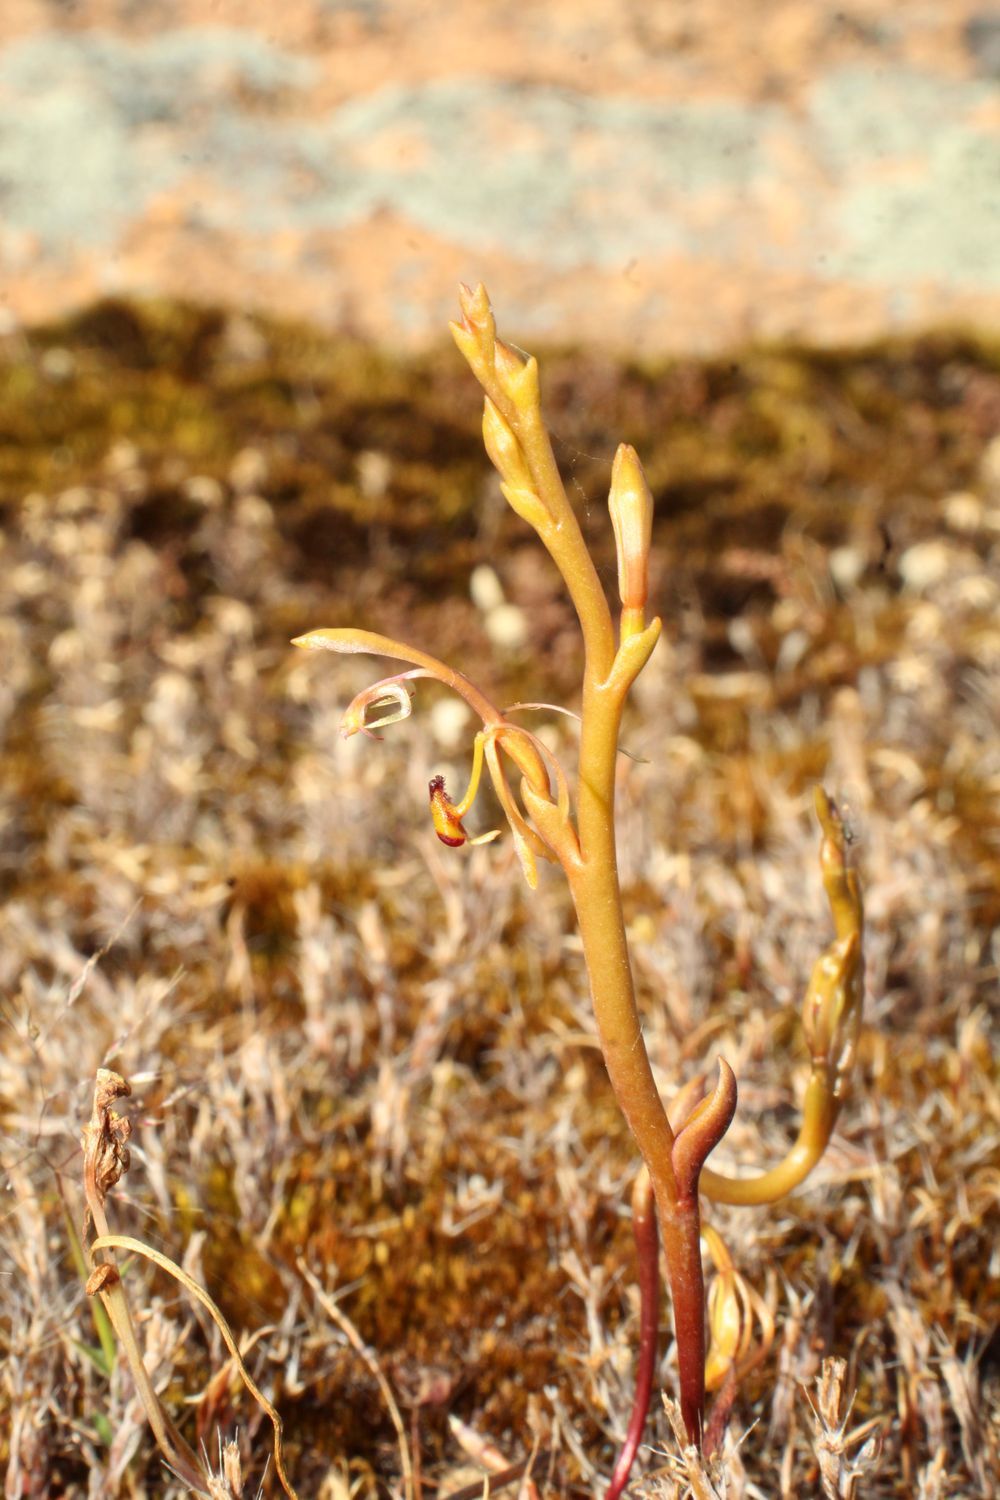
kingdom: Plantae
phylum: Tracheophyta
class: Liliopsida
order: Asparagales
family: Orchidaceae
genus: Spiculaea
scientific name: Spiculaea ciliata
